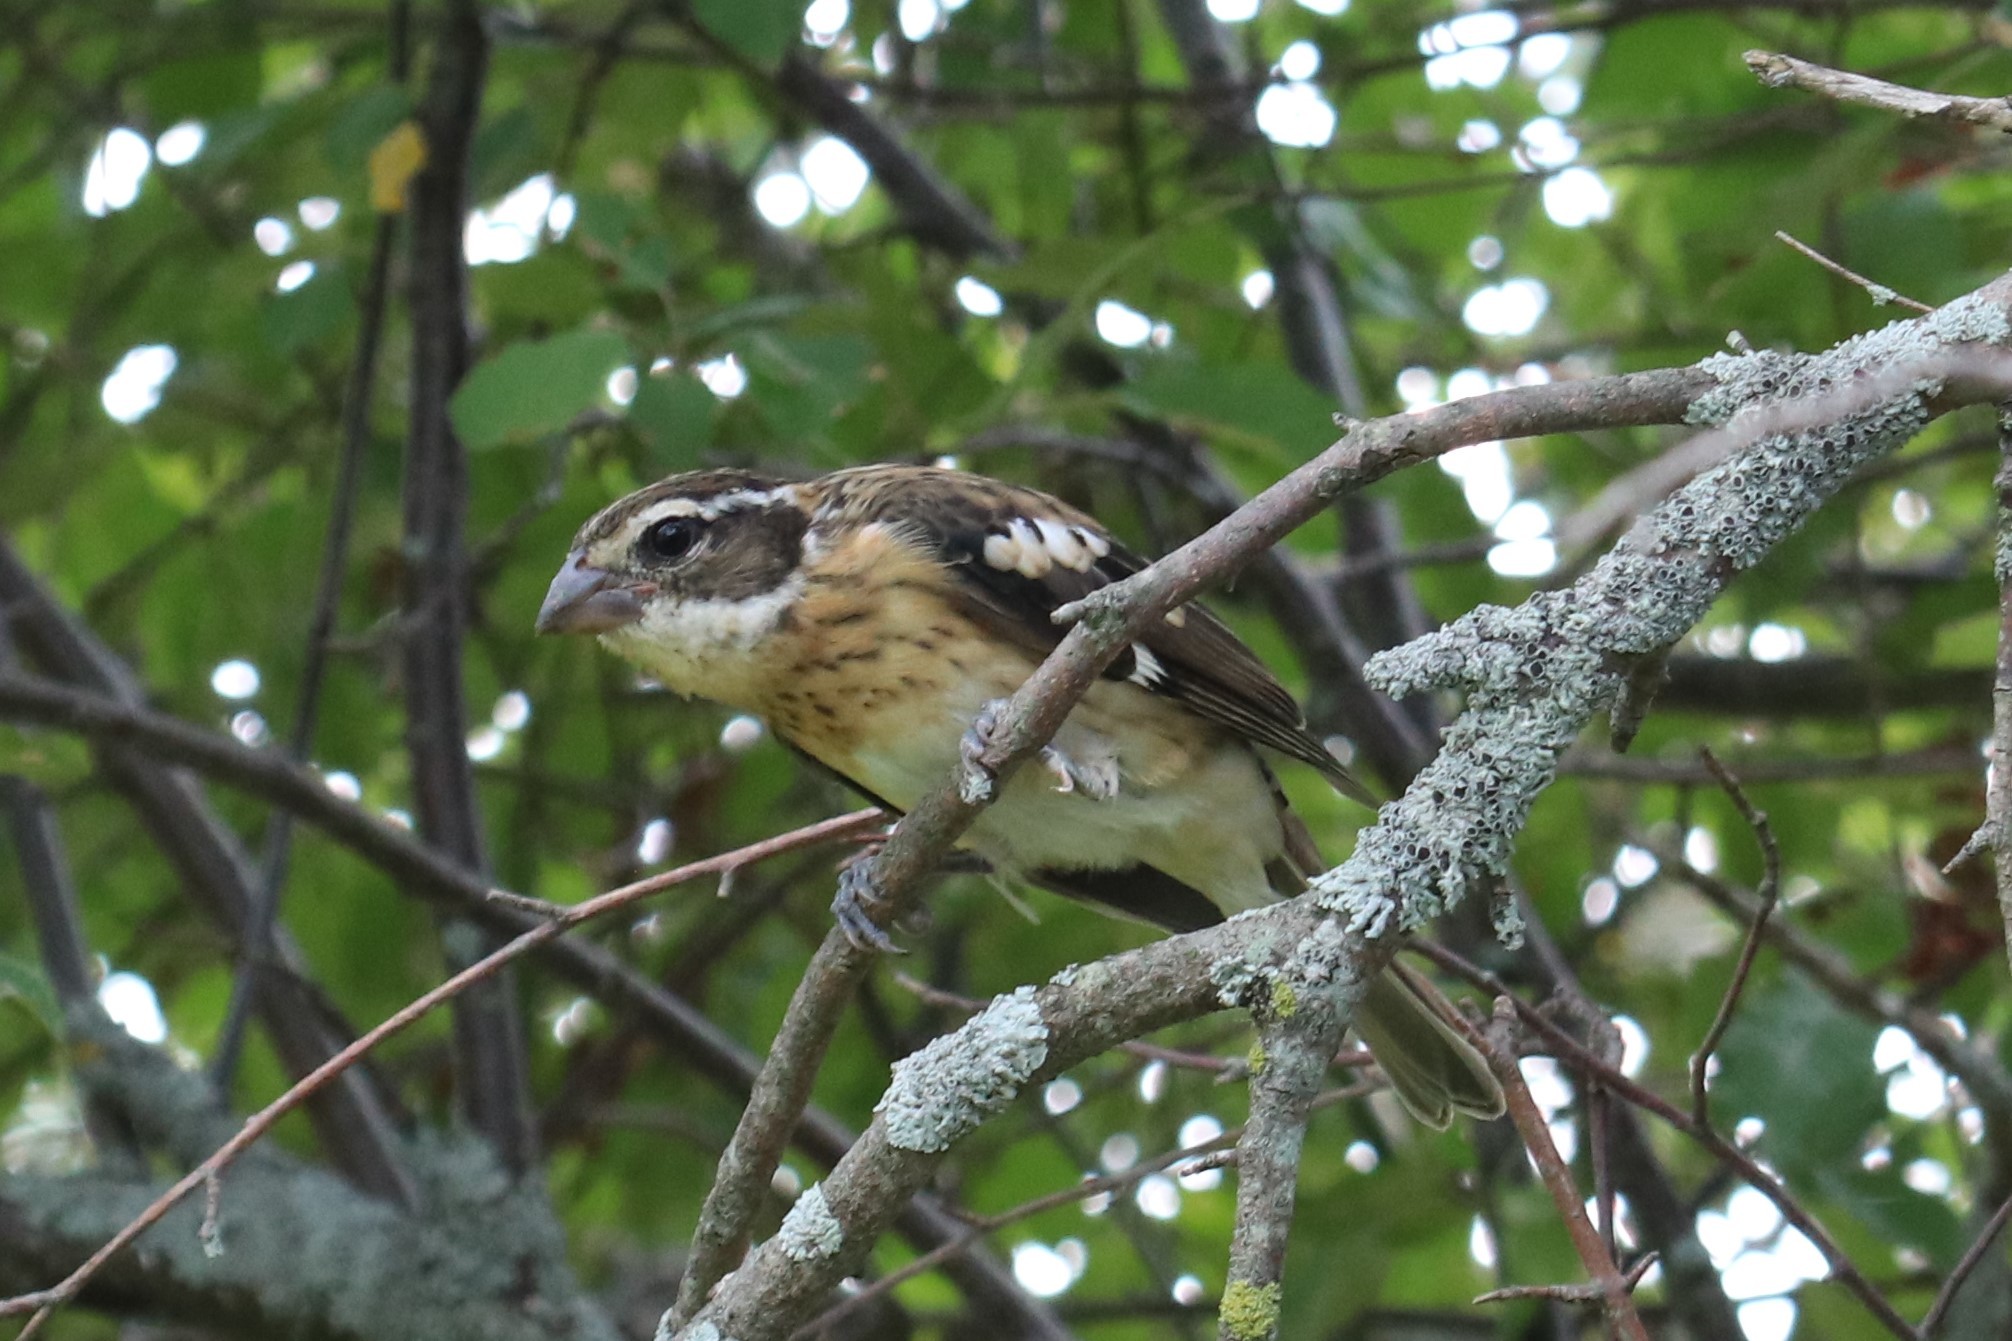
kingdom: Animalia
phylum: Chordata
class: Aves
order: Passeriformes
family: Cardinalidae
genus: Pheucticus
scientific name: Pheucticus ludovicianus
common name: Rose-breasted grosbeak
